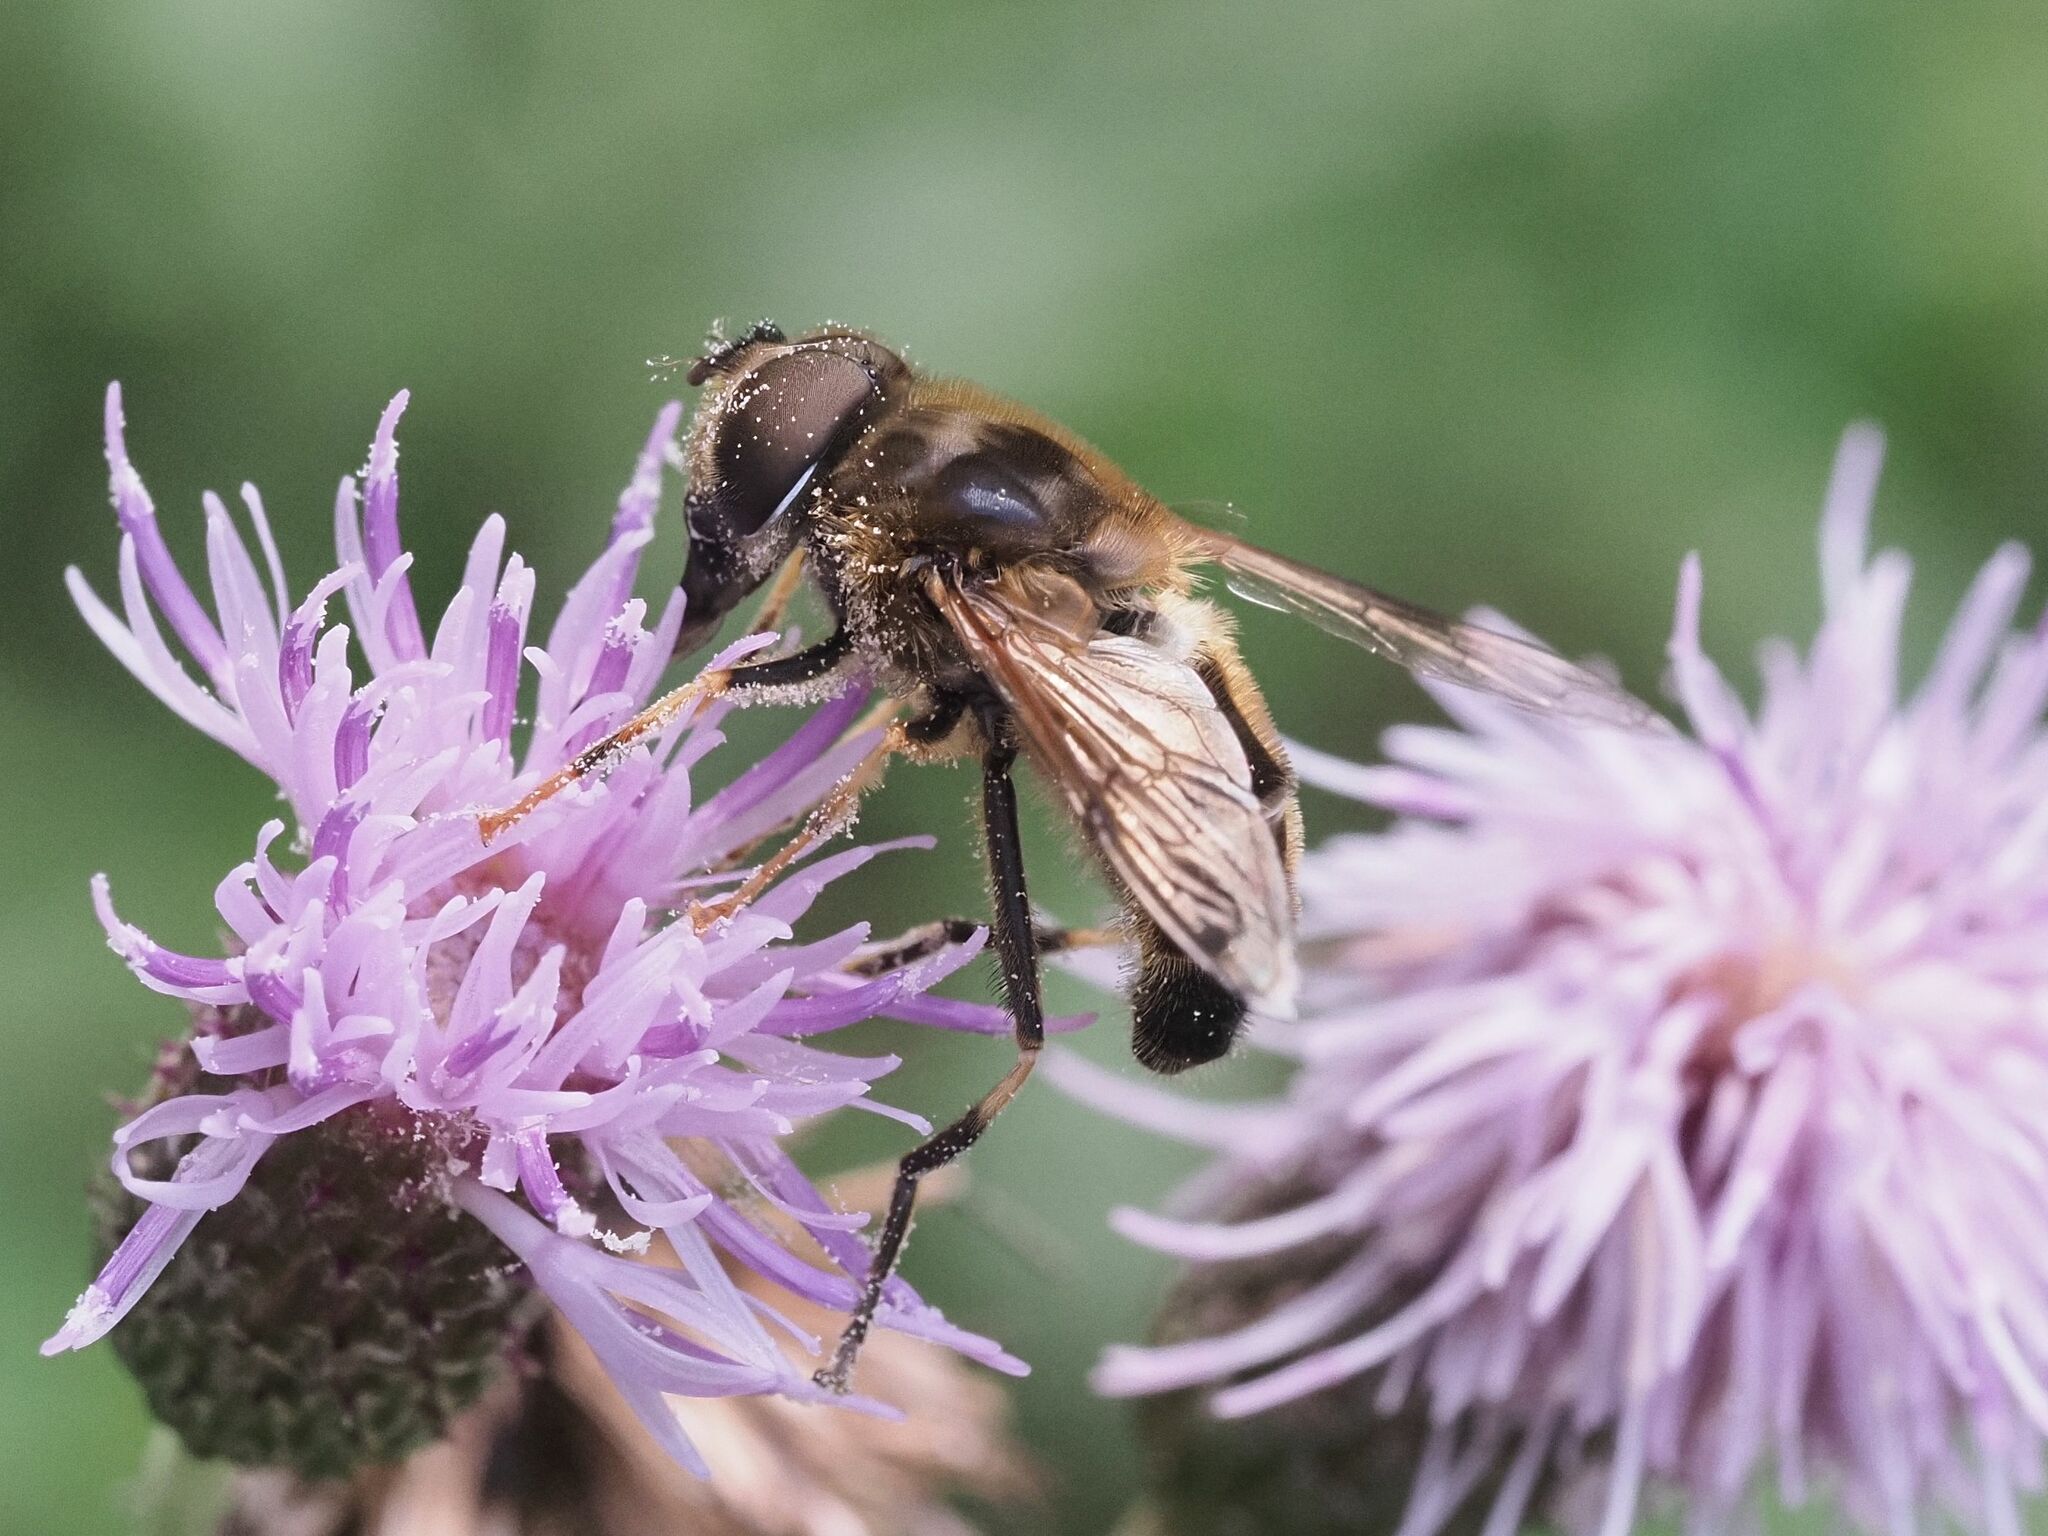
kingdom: Animalia
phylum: Arthropoda
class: Insecta
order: Diptera
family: Syrphidae
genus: Eristalis
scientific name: Eristalis pertinax
